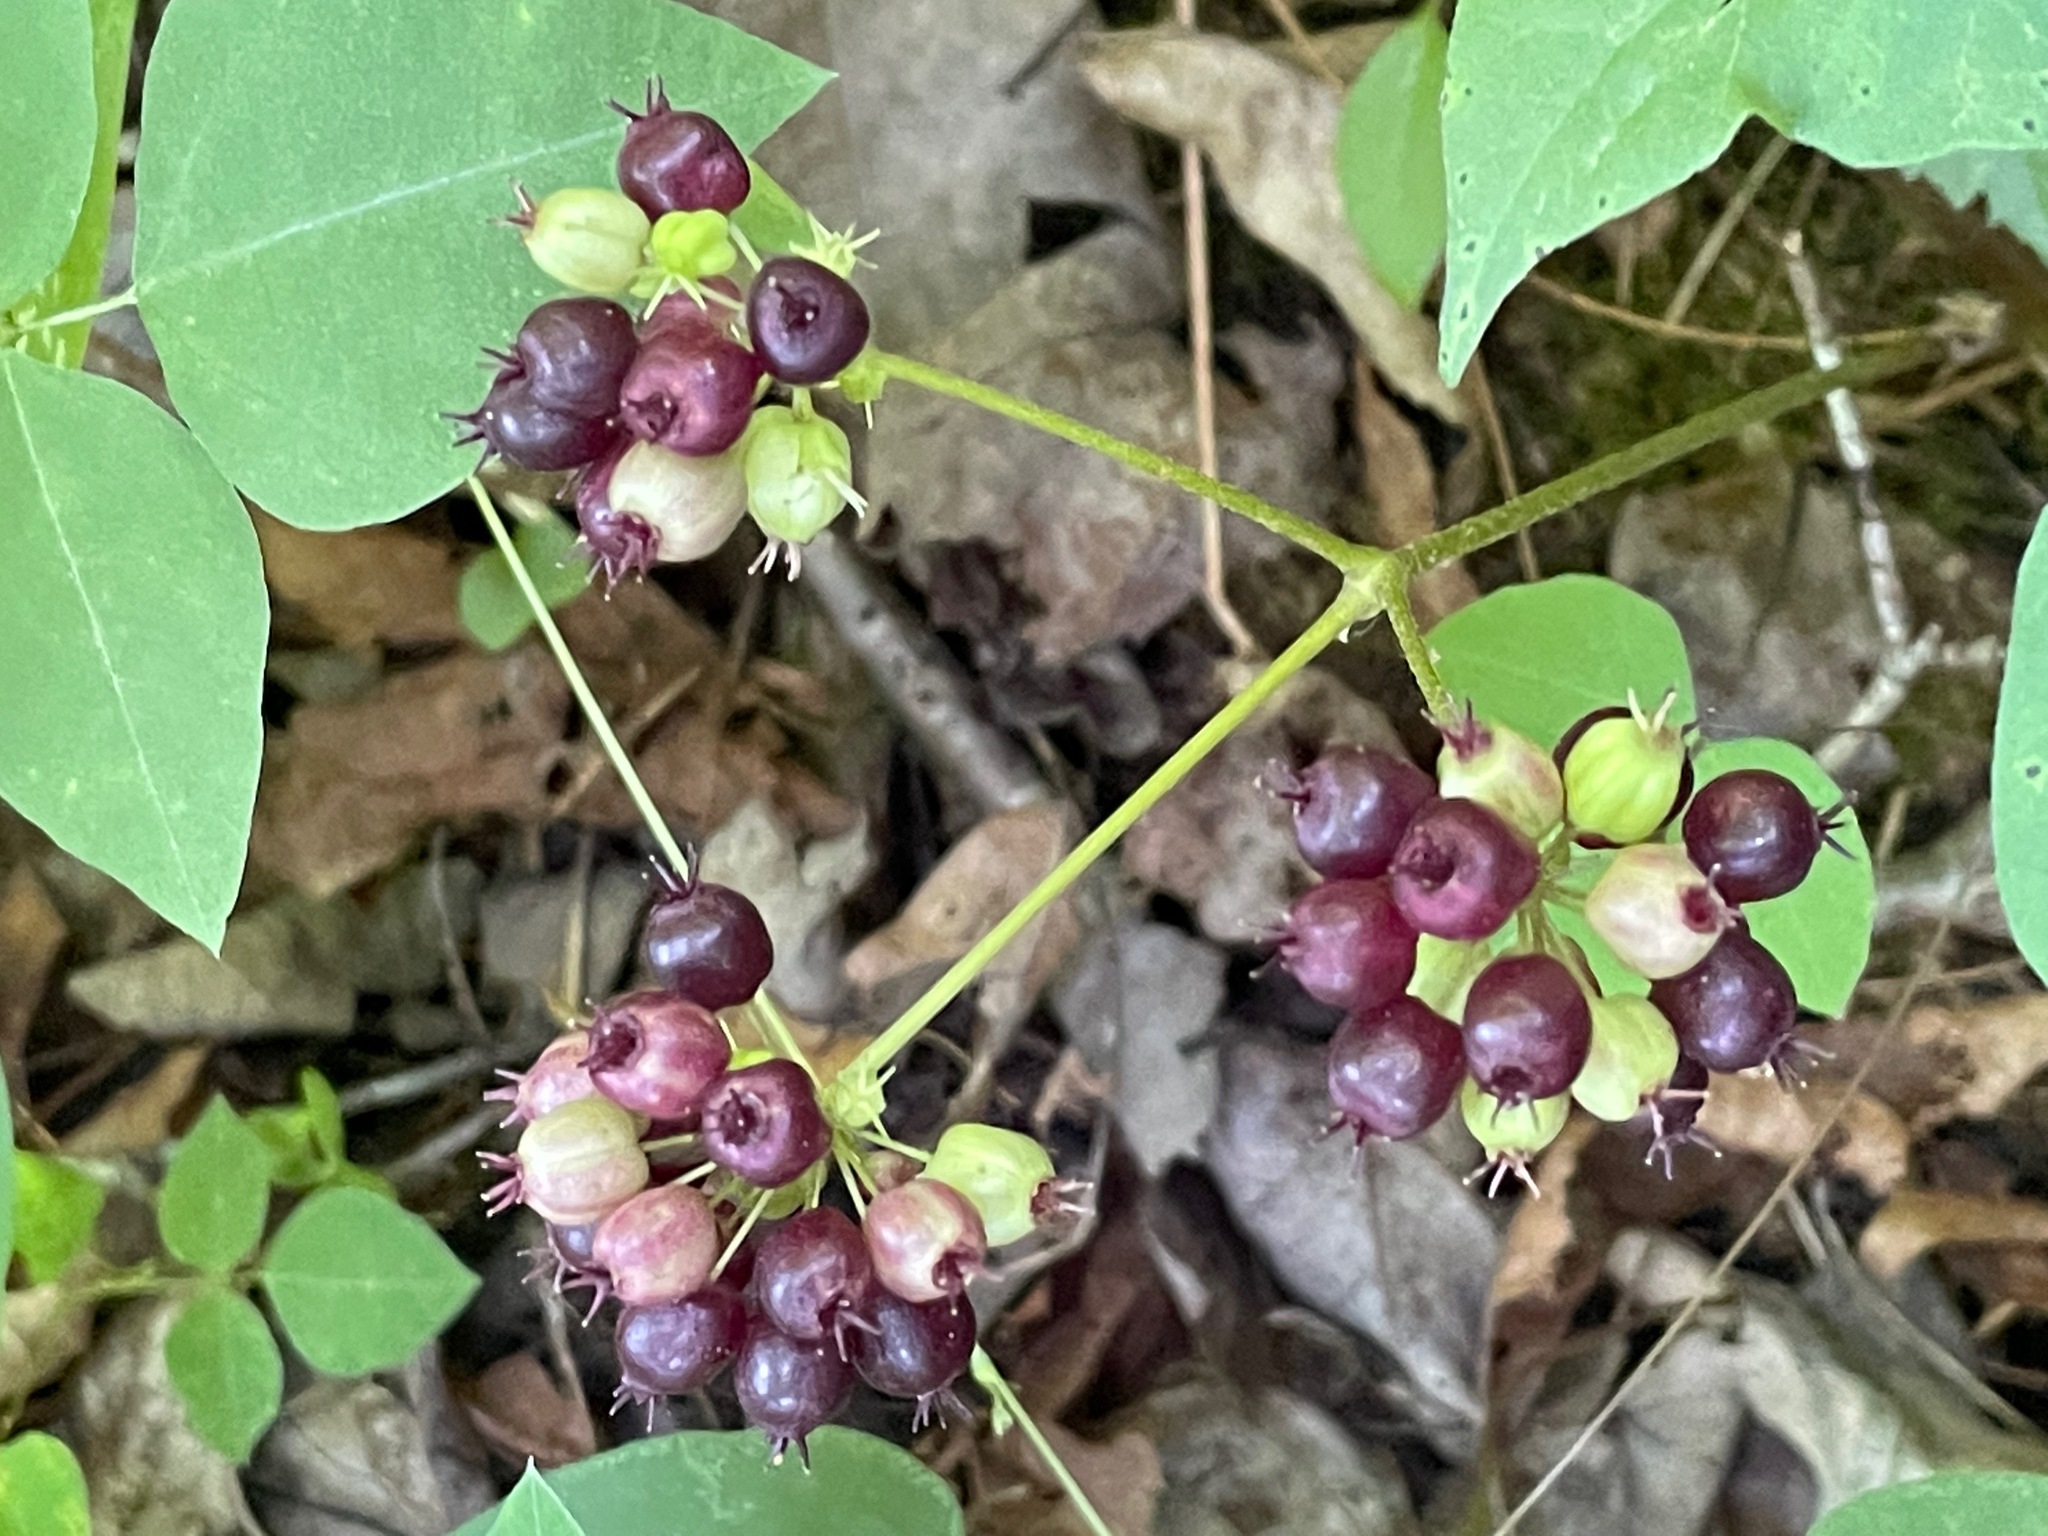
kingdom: Plantae
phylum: Tracheophyta
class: Magnoliopsida
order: Apiales
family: Araliaceae
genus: Aralia
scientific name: Aralia nudicaulis
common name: Wild sarsaparilla
